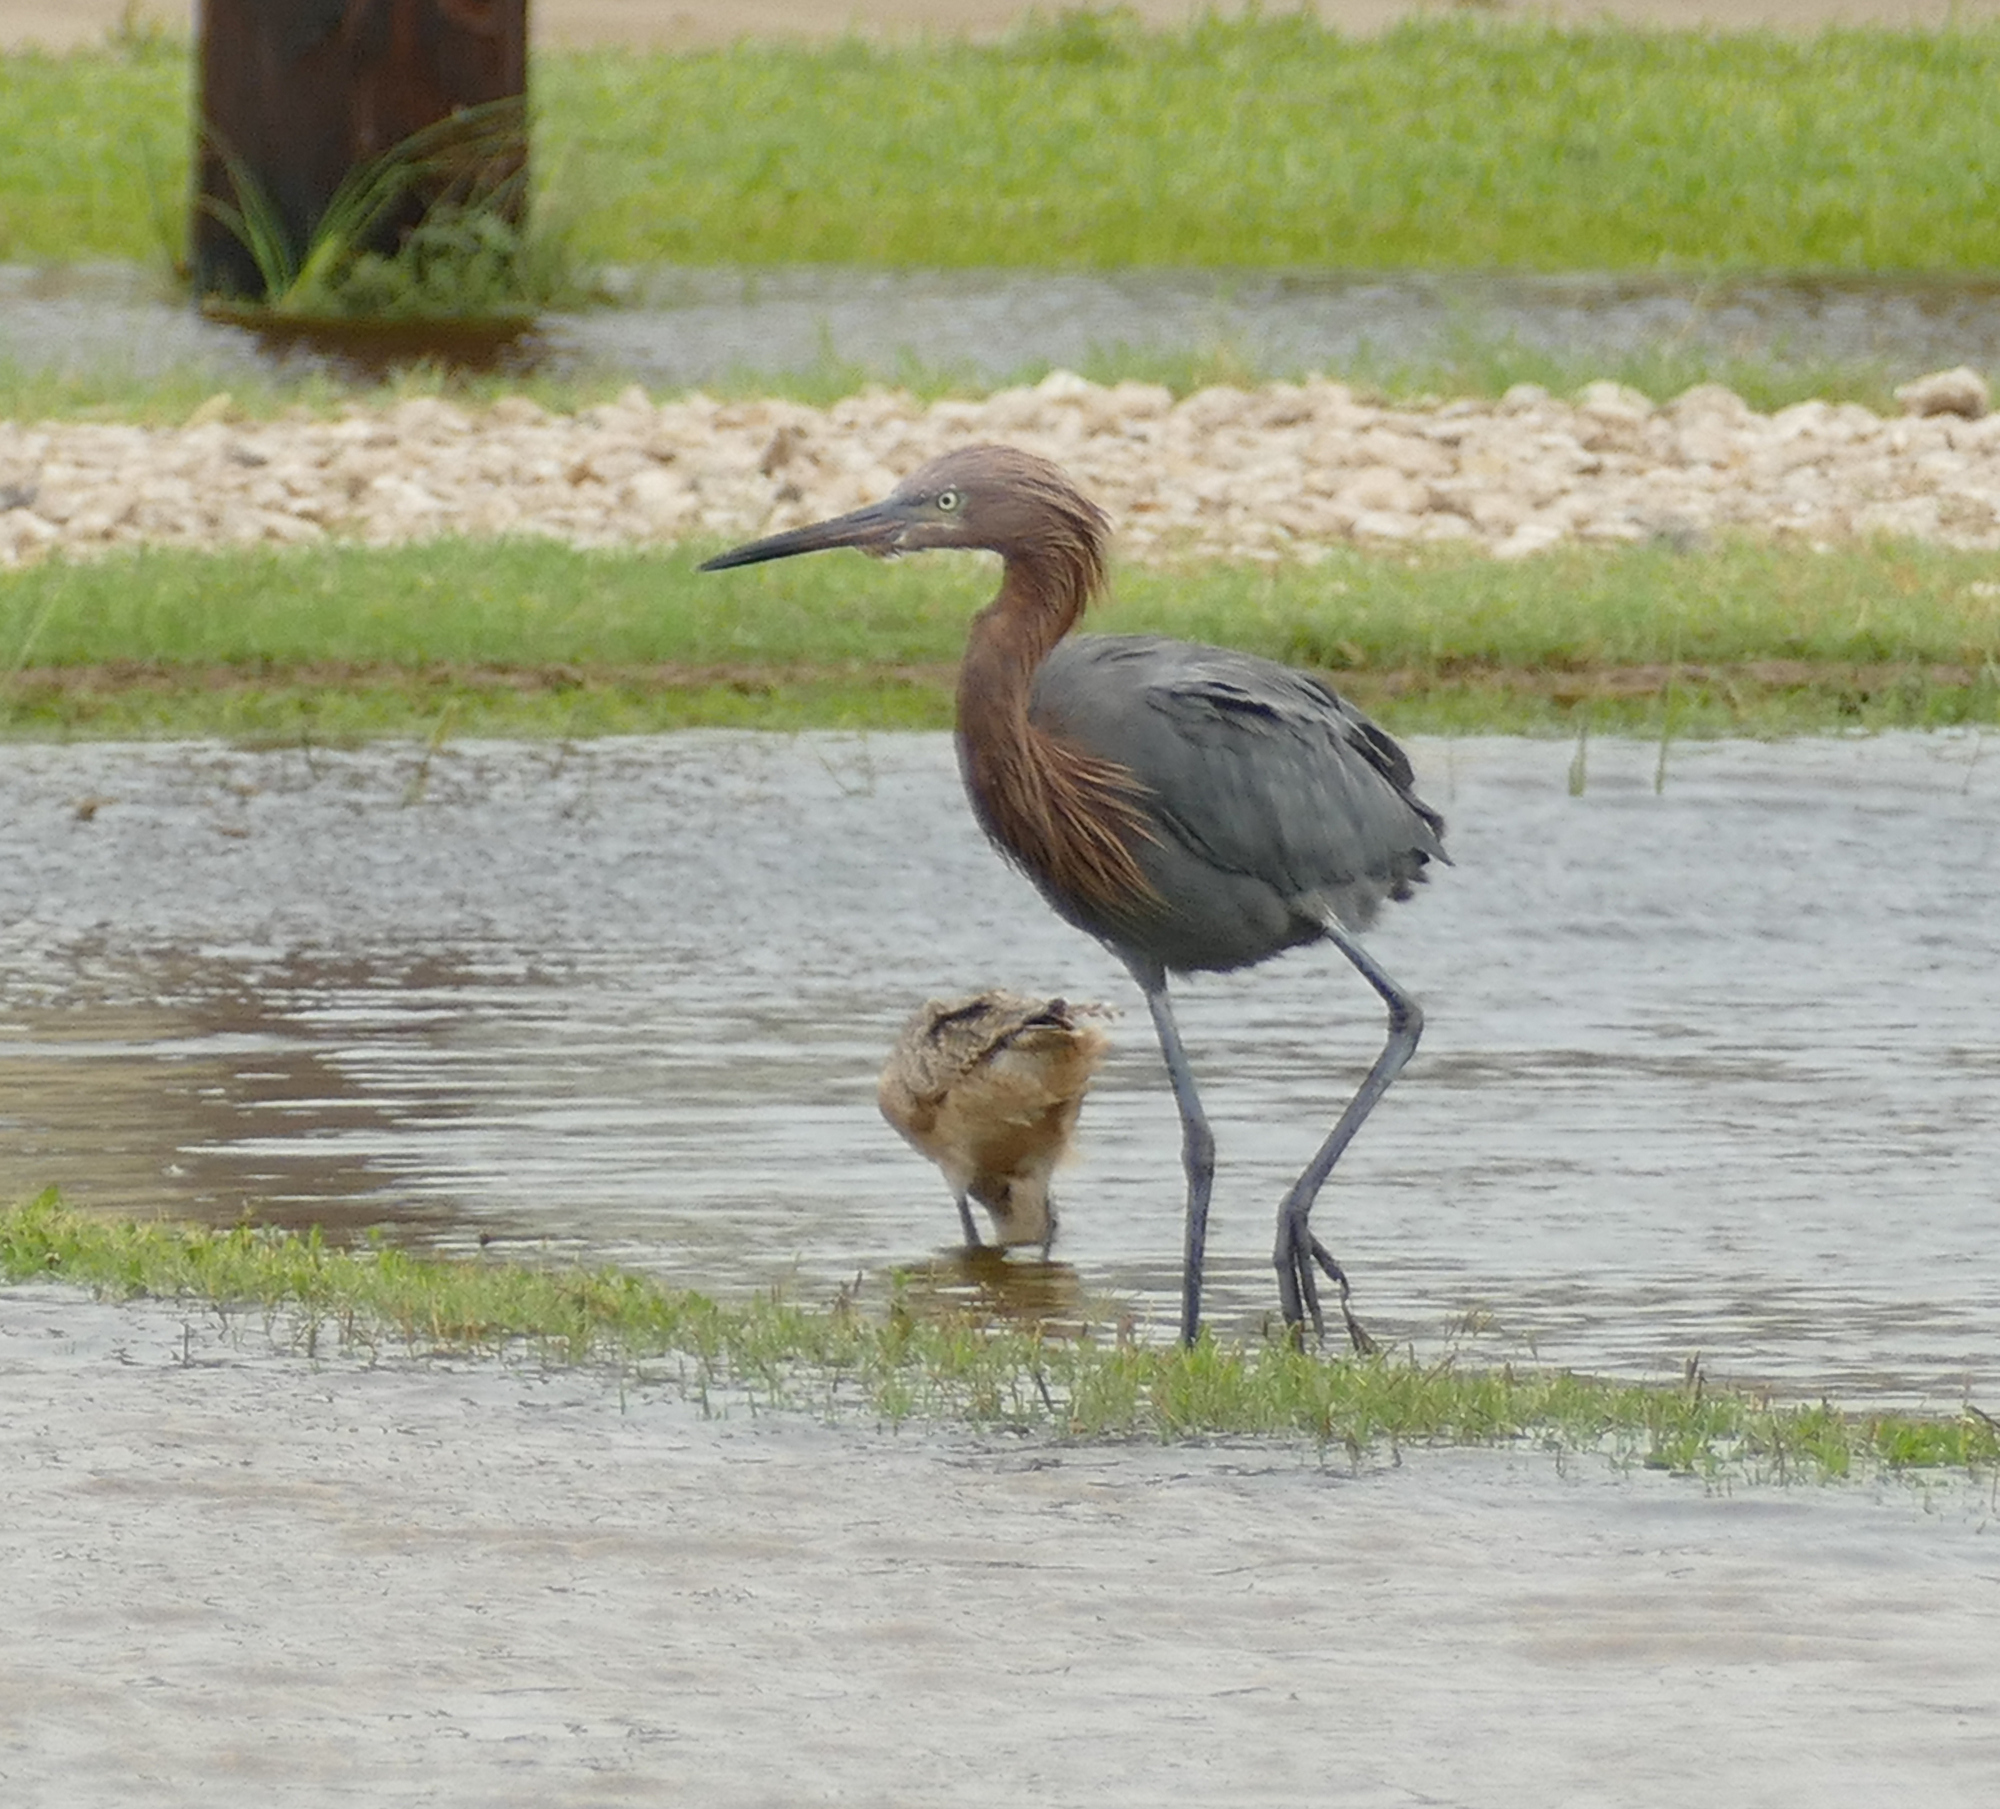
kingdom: Animalia
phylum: Chordata
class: Aves
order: Pelecaniformes
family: Ardeidae
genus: Egretta
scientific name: Egretta rufescens
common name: Reddish egret
